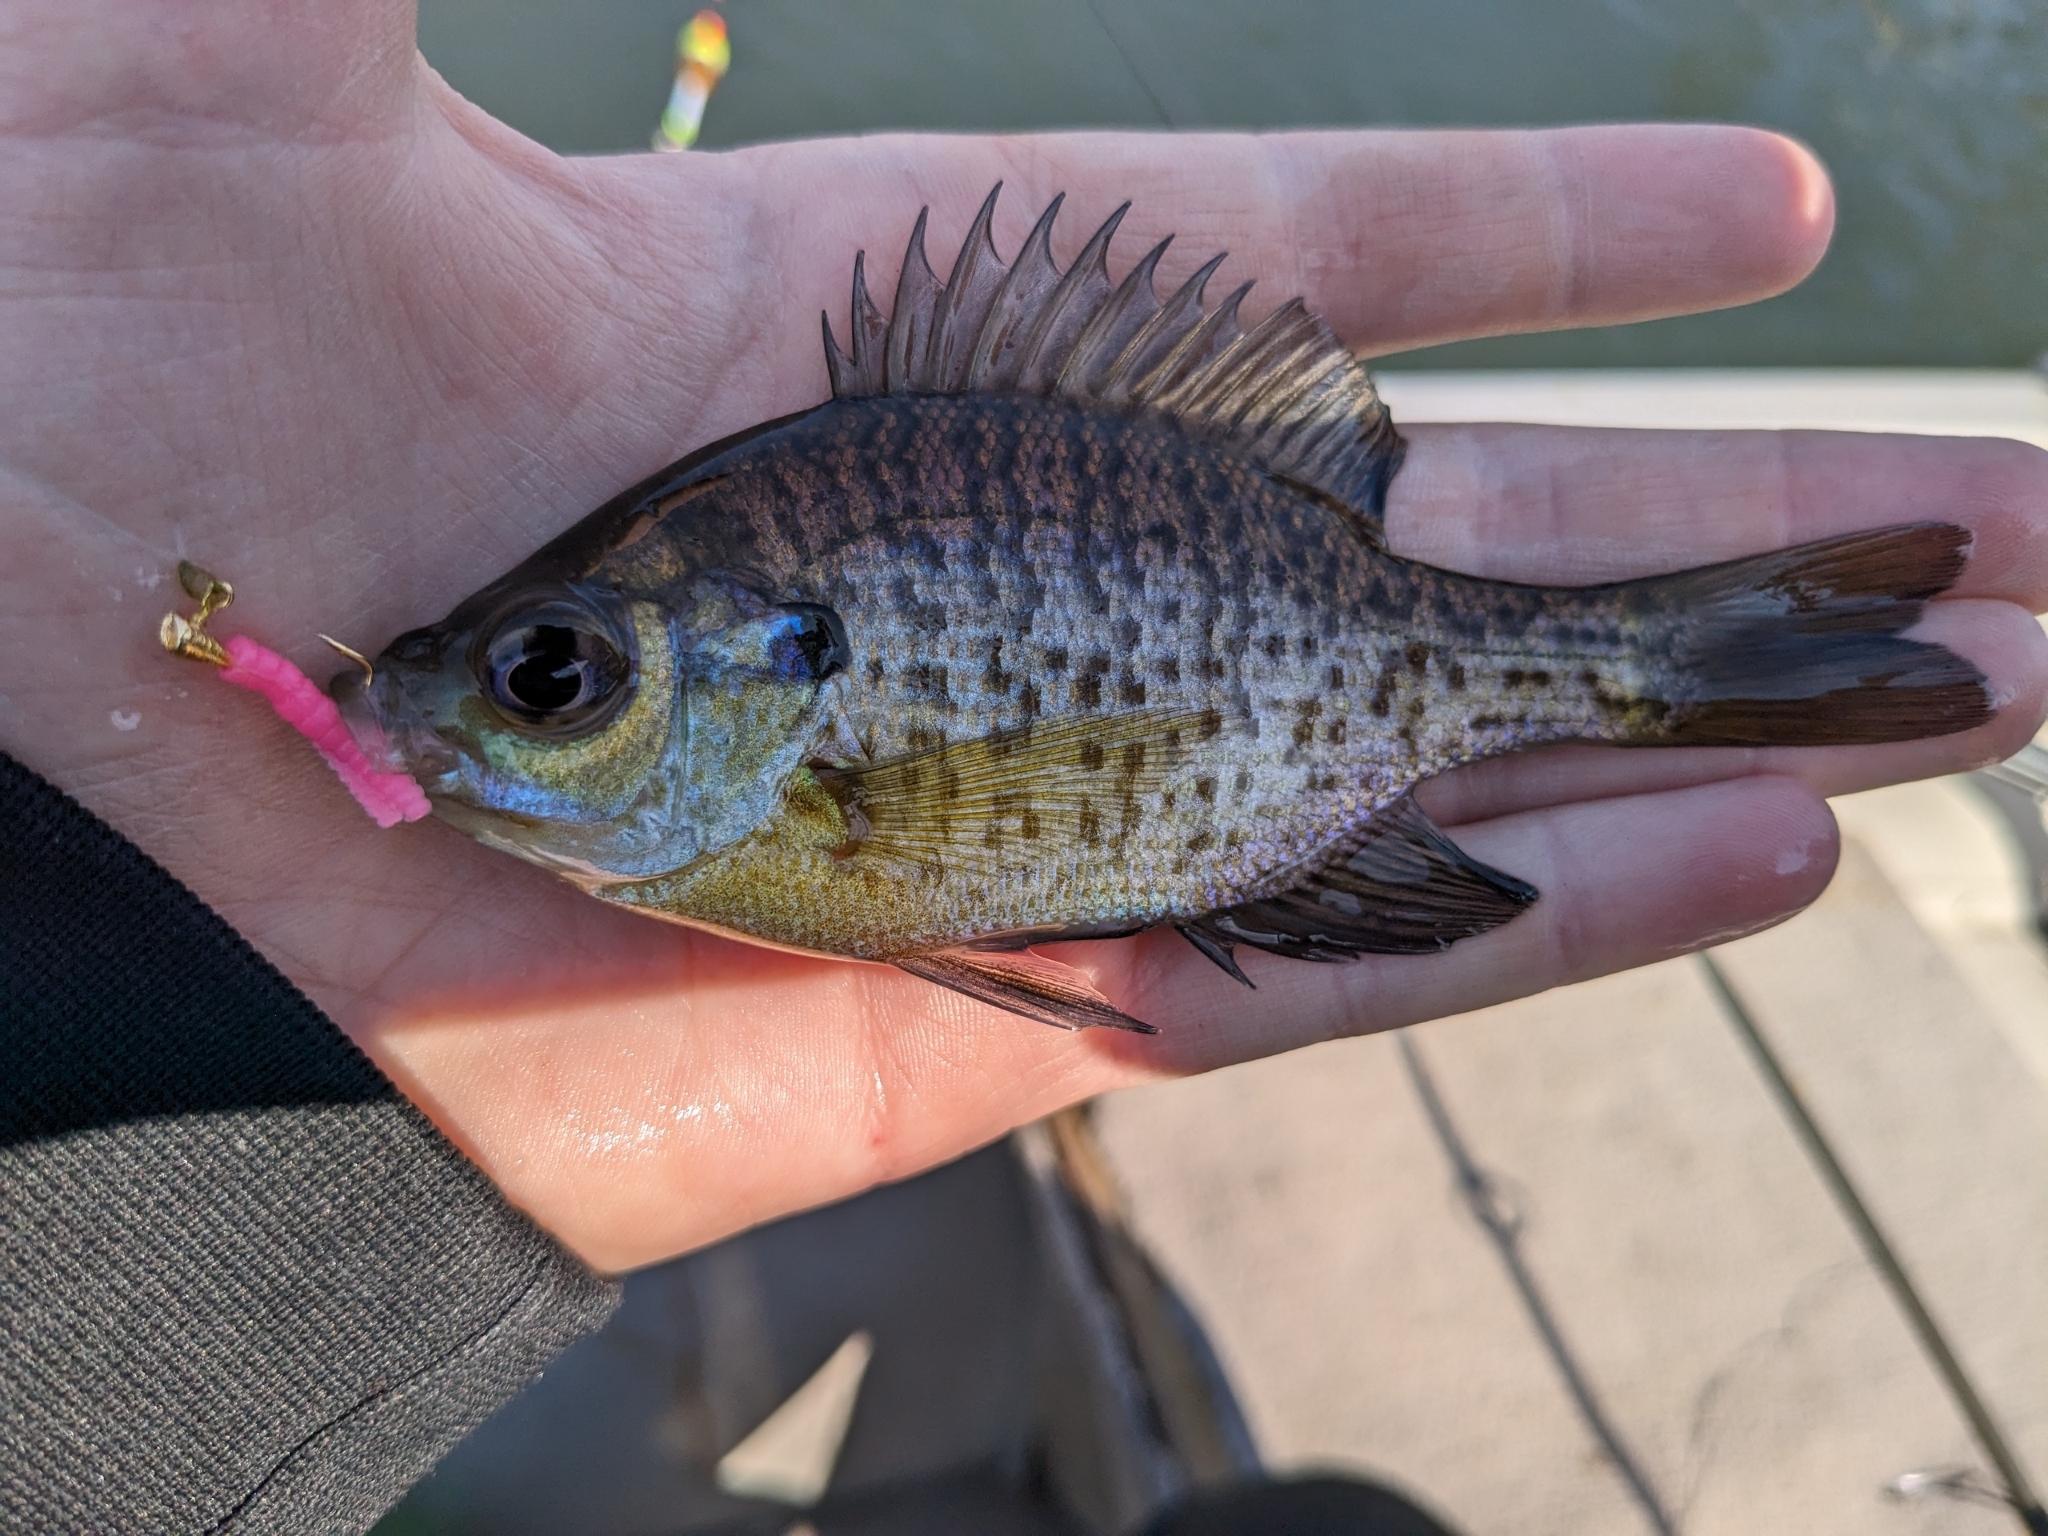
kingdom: Animalia
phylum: Chordata
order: Perciformes
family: Centrarchidae
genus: Lepomis
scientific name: Lepomis macrochirus
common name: Bluegill
